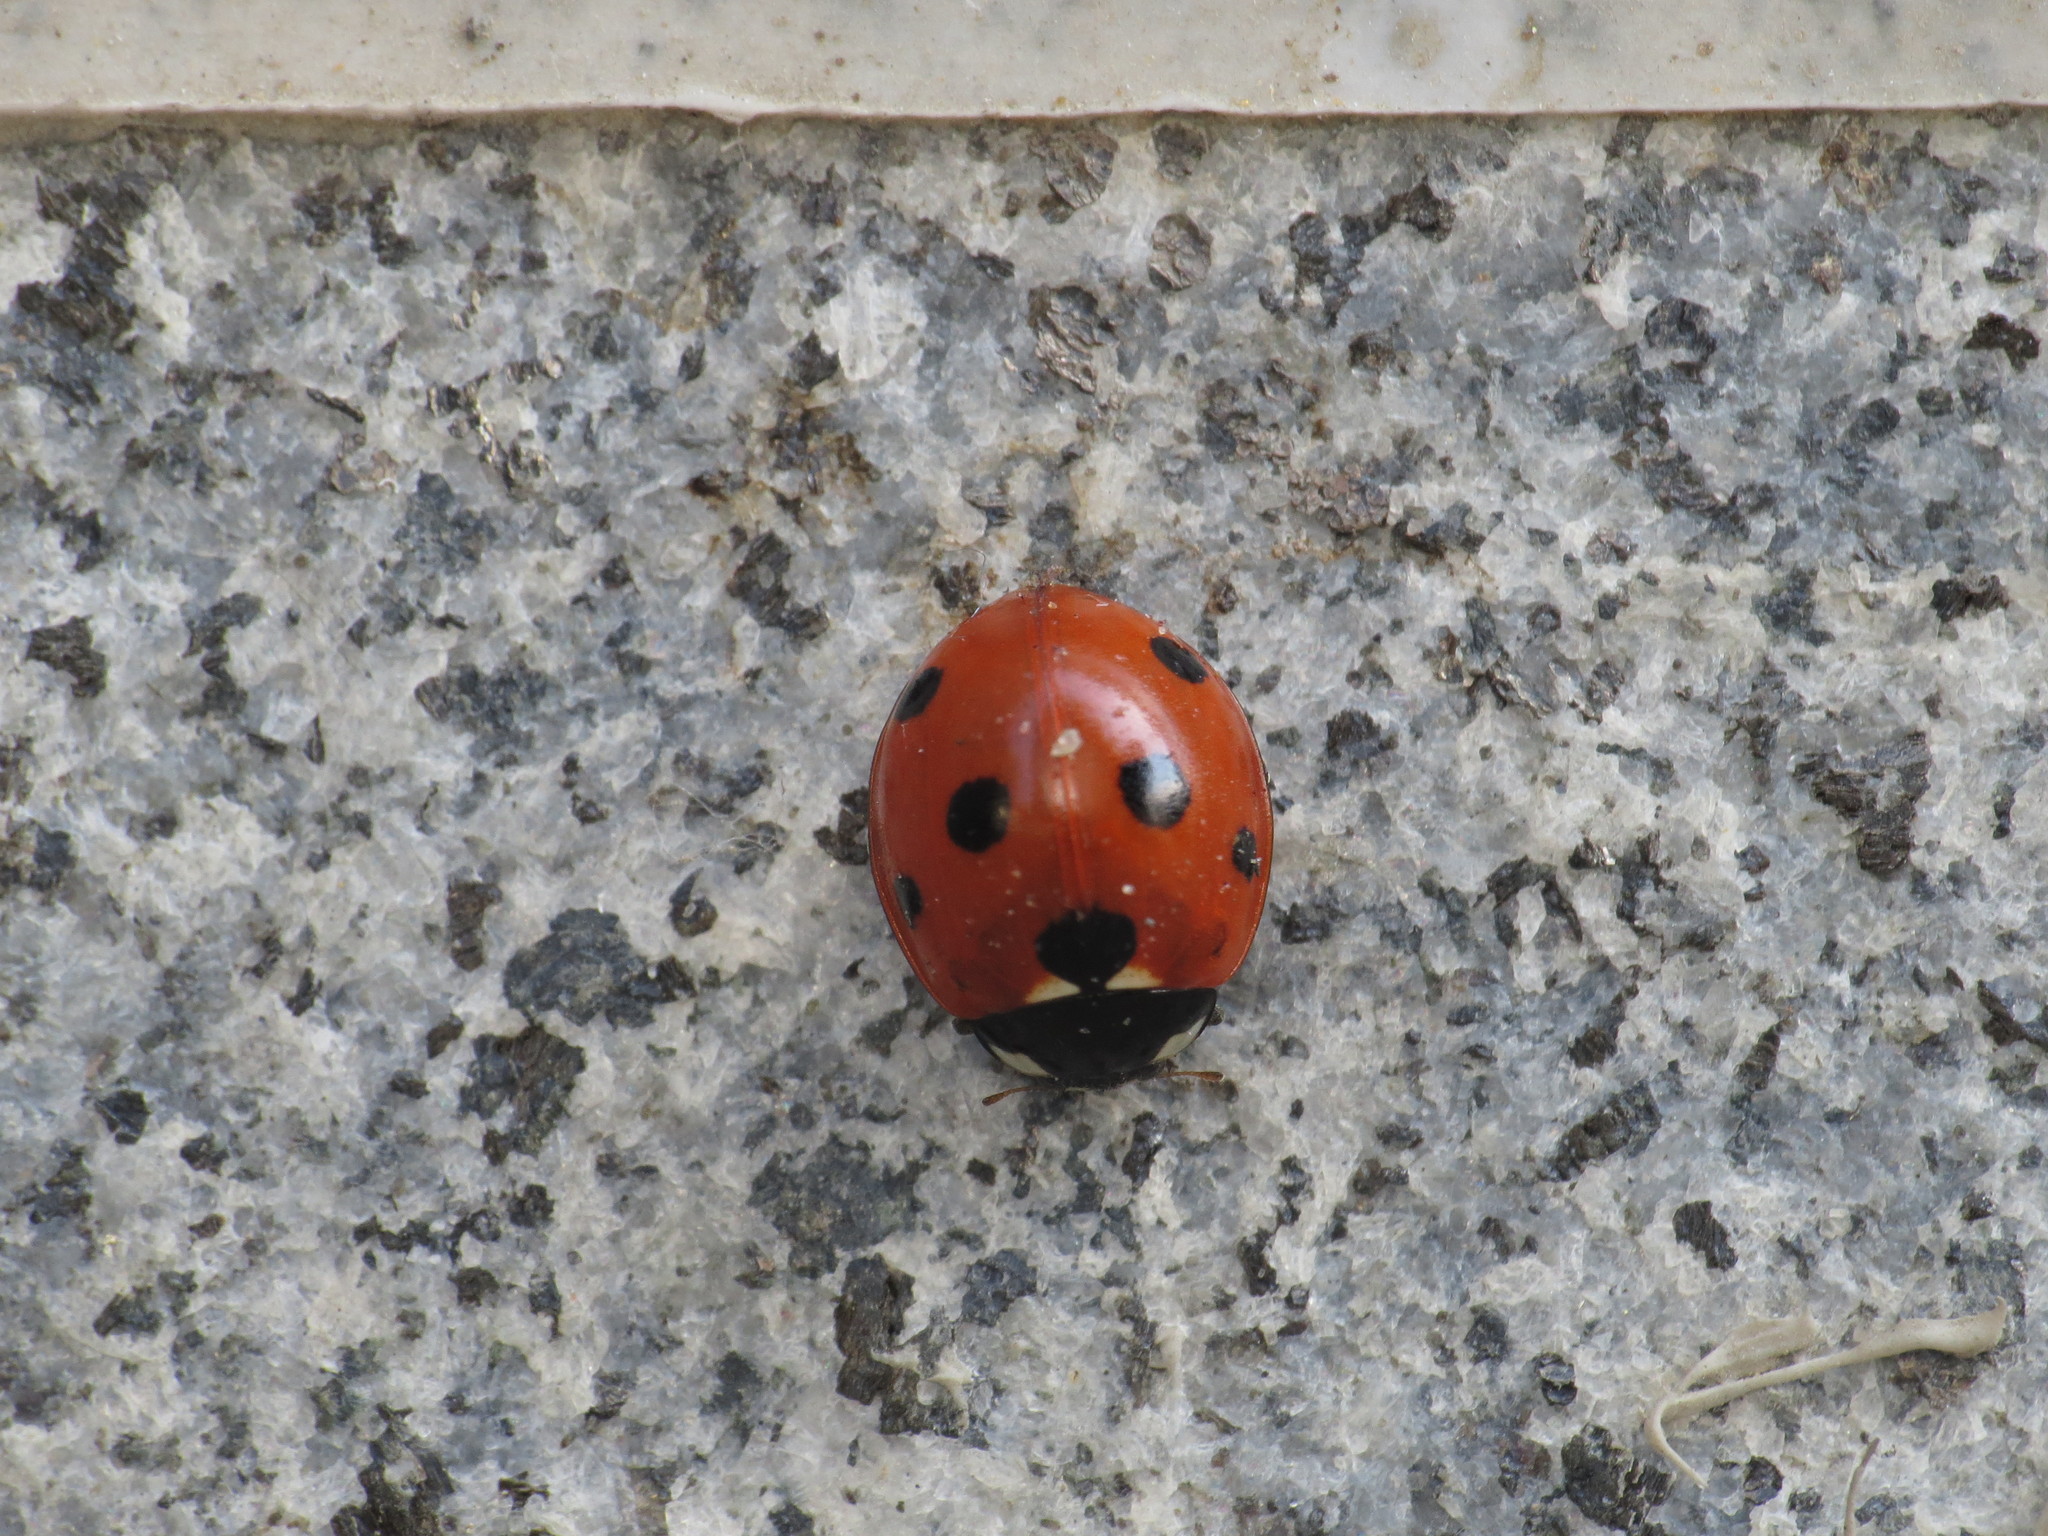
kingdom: Animalia
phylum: Arthropoda
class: Insecta
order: Coleoptera
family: Coccinellidae
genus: Coccinella
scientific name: Coccinella septempunctata
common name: Sevenspotted lady beetle
